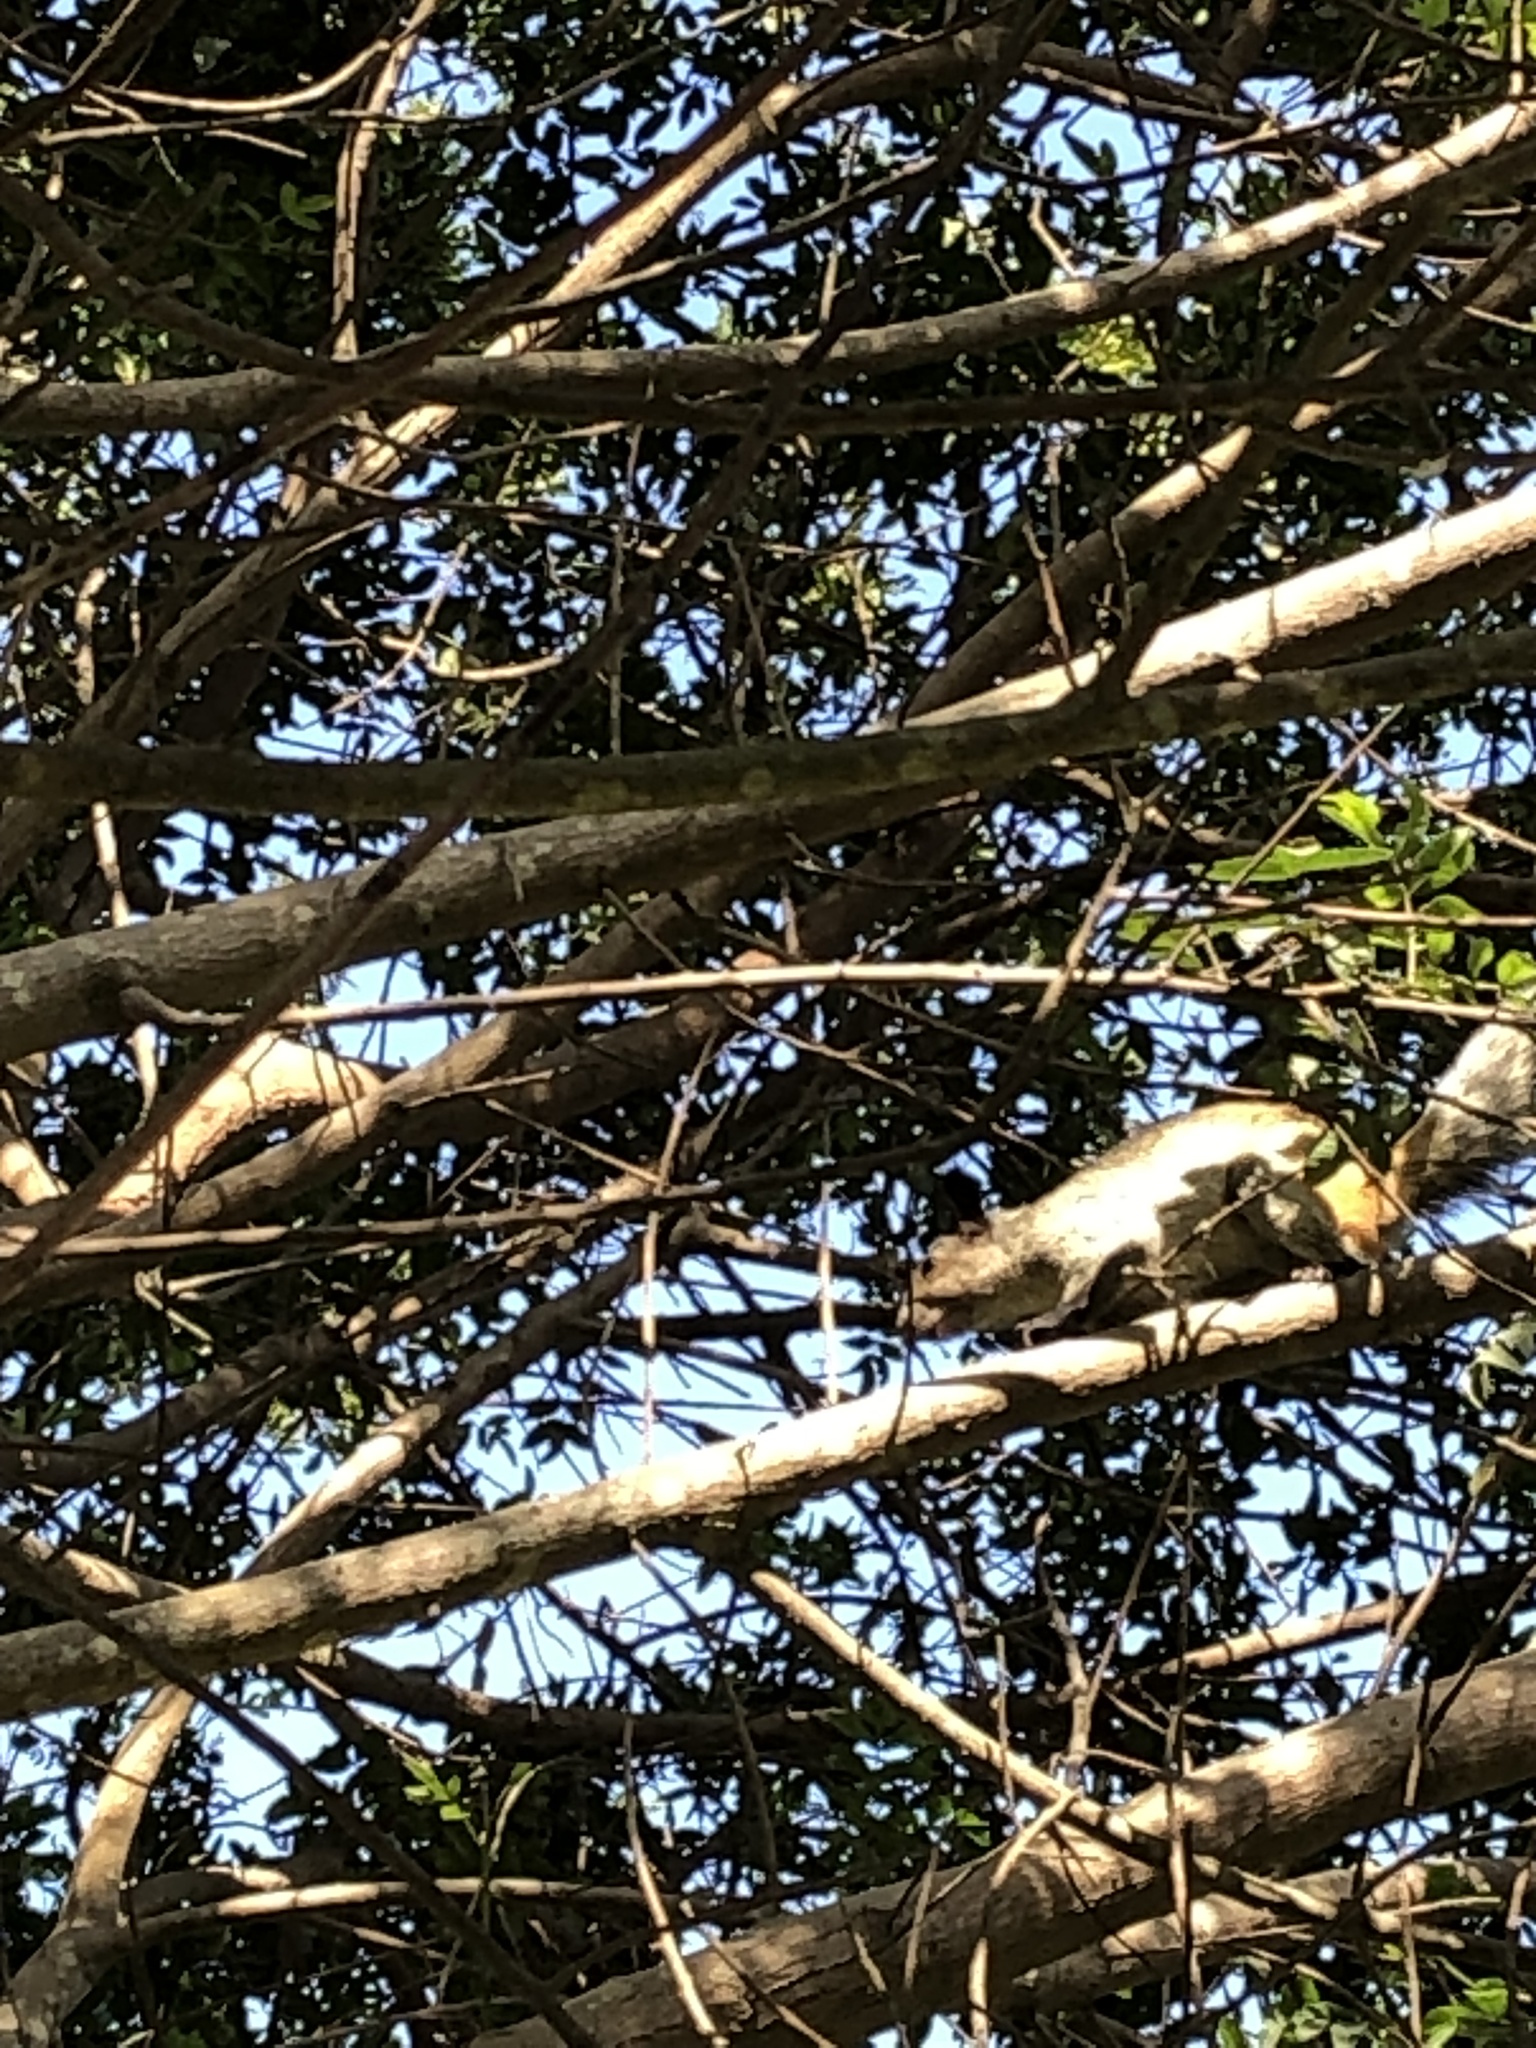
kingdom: Animalia
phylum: Chordata
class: Mammalia
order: Rodentia
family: Sciuridae
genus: Sciurus
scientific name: Sciurus stramineus
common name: Guayaquil squirrel
